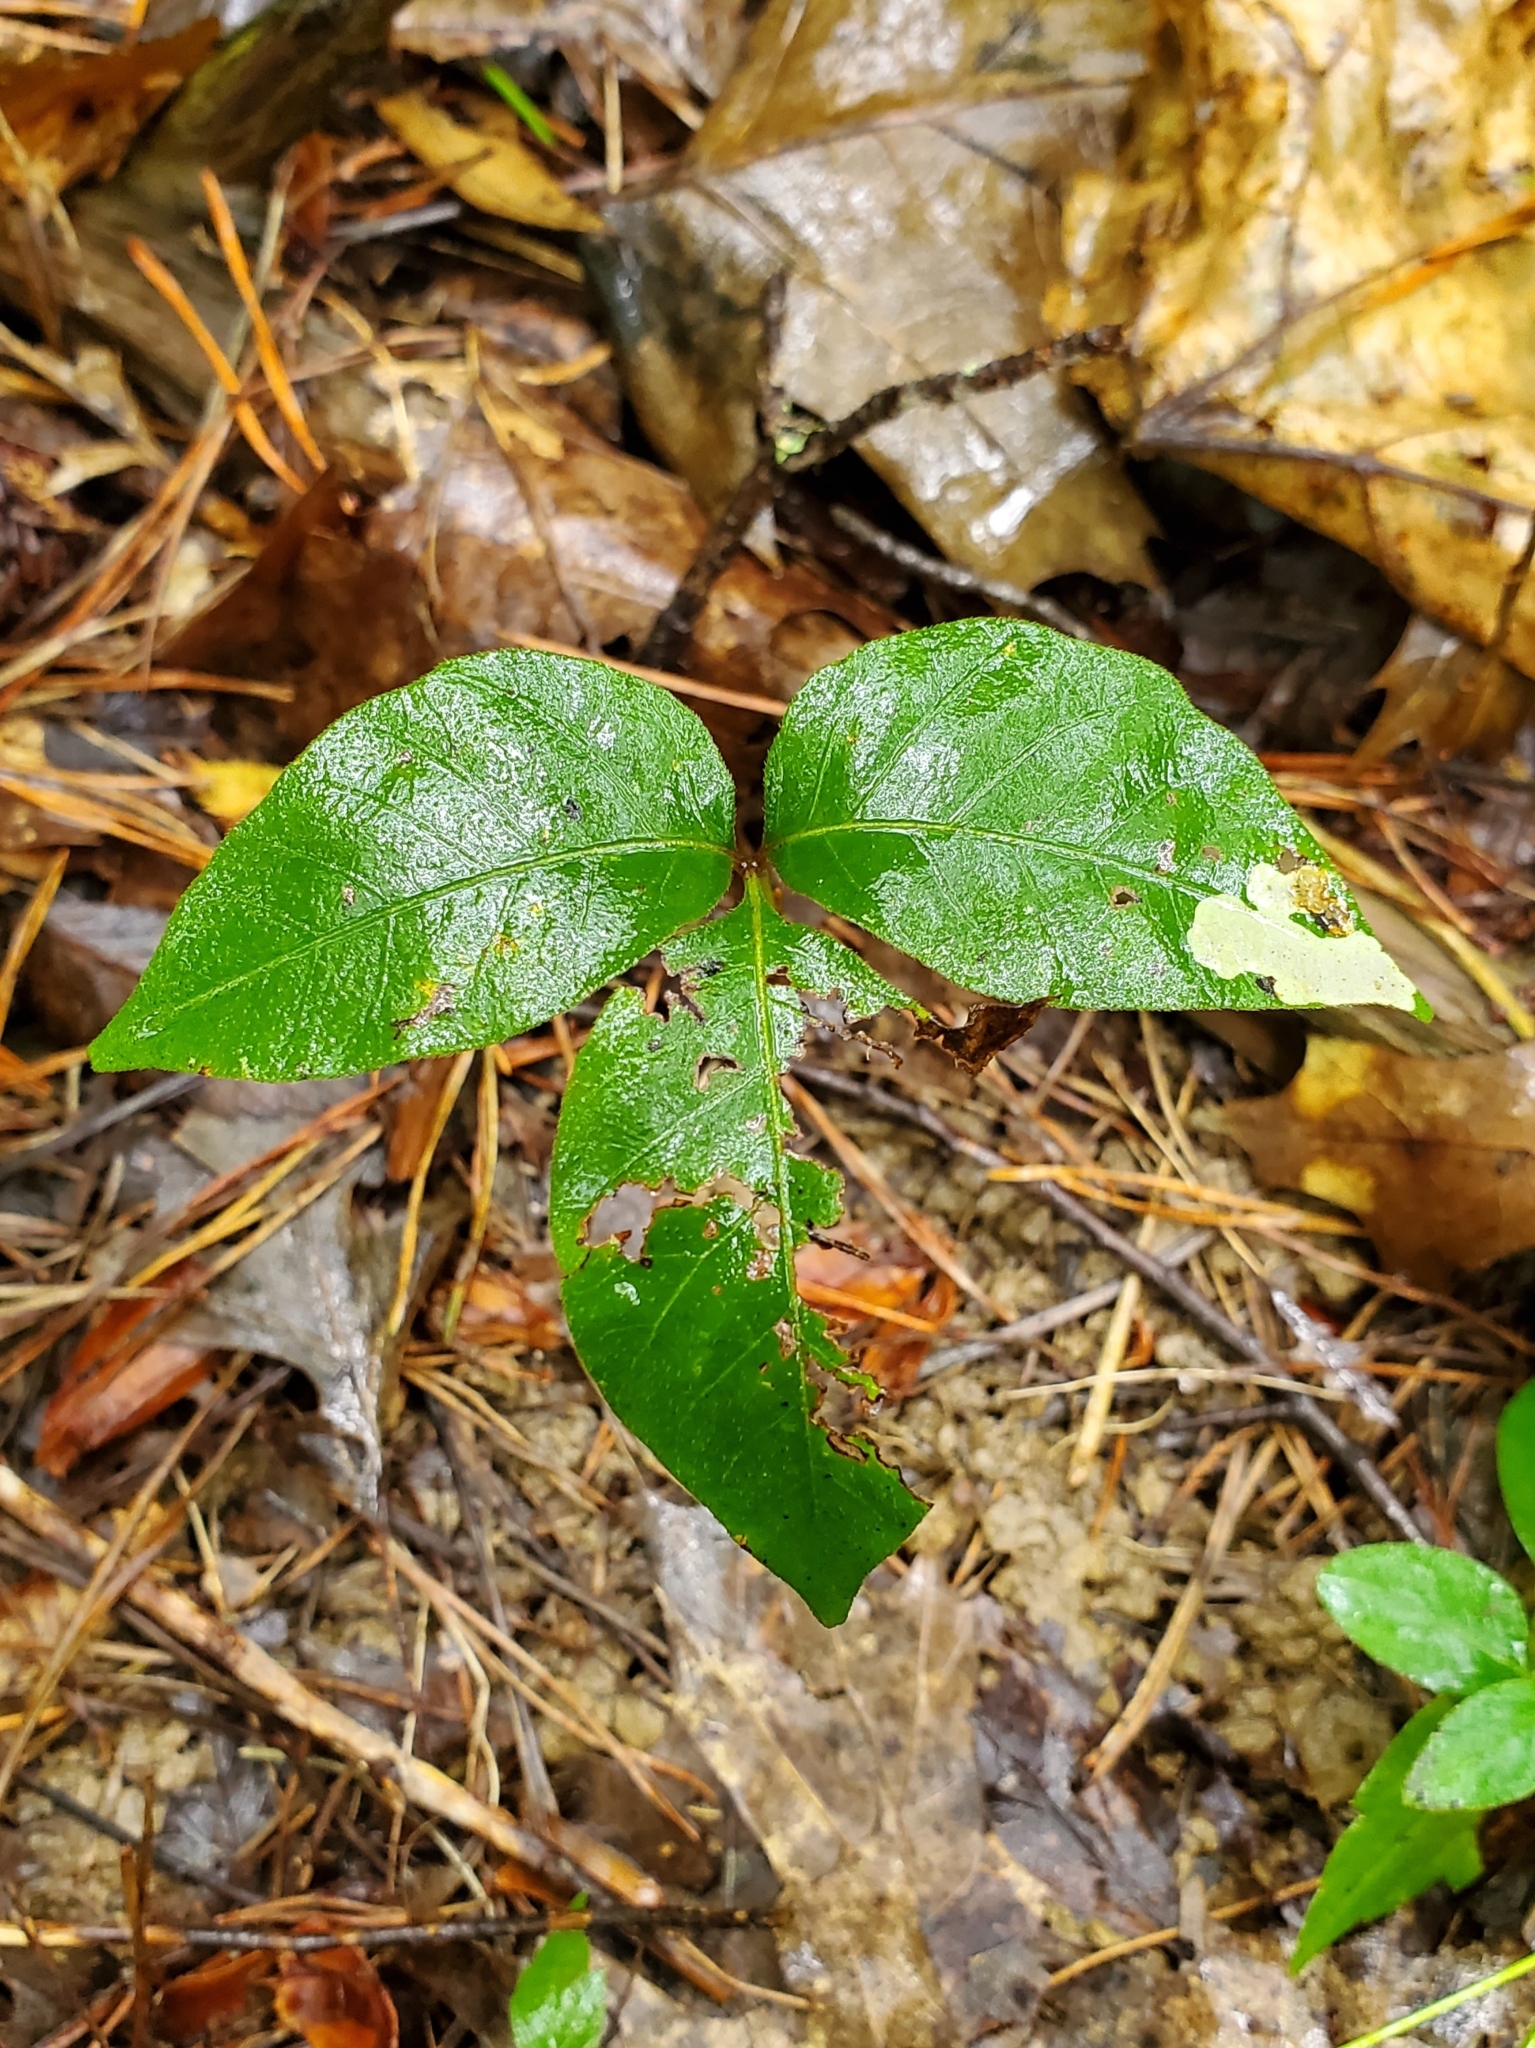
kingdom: Animalia
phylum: Arthropoda
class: Insecta
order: Lepidoptera
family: Gracillariidae
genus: Cameraria
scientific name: Cameraria guttifinitella
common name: Poison ivy leaf-miner moth
